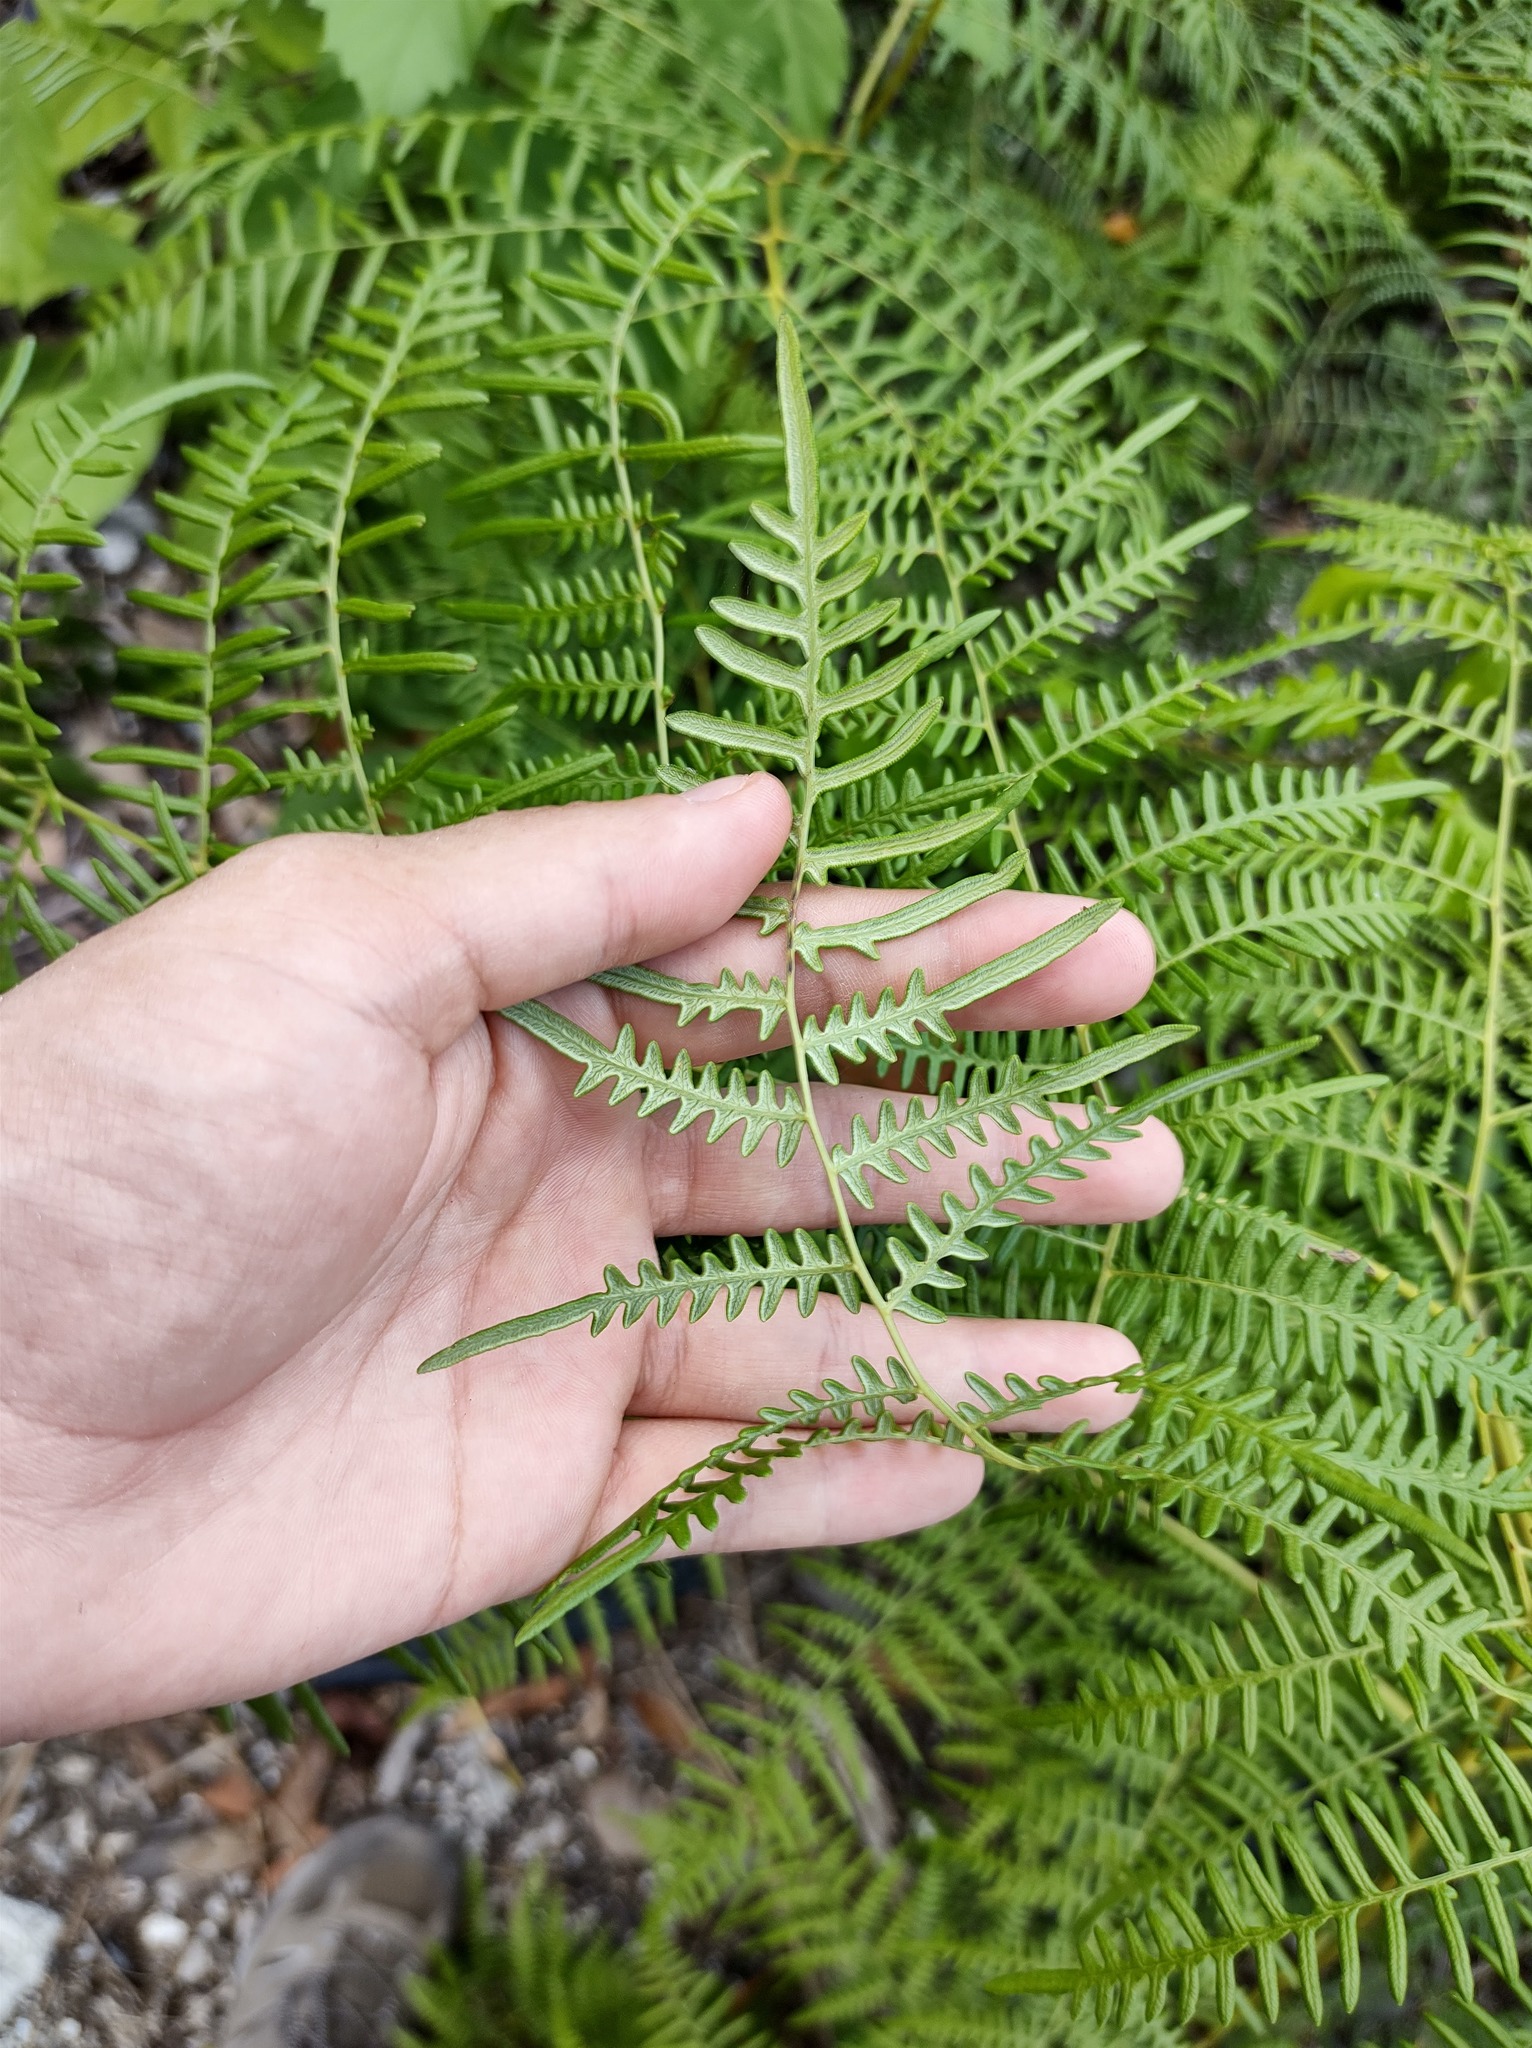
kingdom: Plantae
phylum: Tracheophyta
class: Polypodiopsida
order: Polypodiales
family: Dennstaedtiaceae
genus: Pteridium
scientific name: Pteridium caudatum
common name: Southern bracken fern
